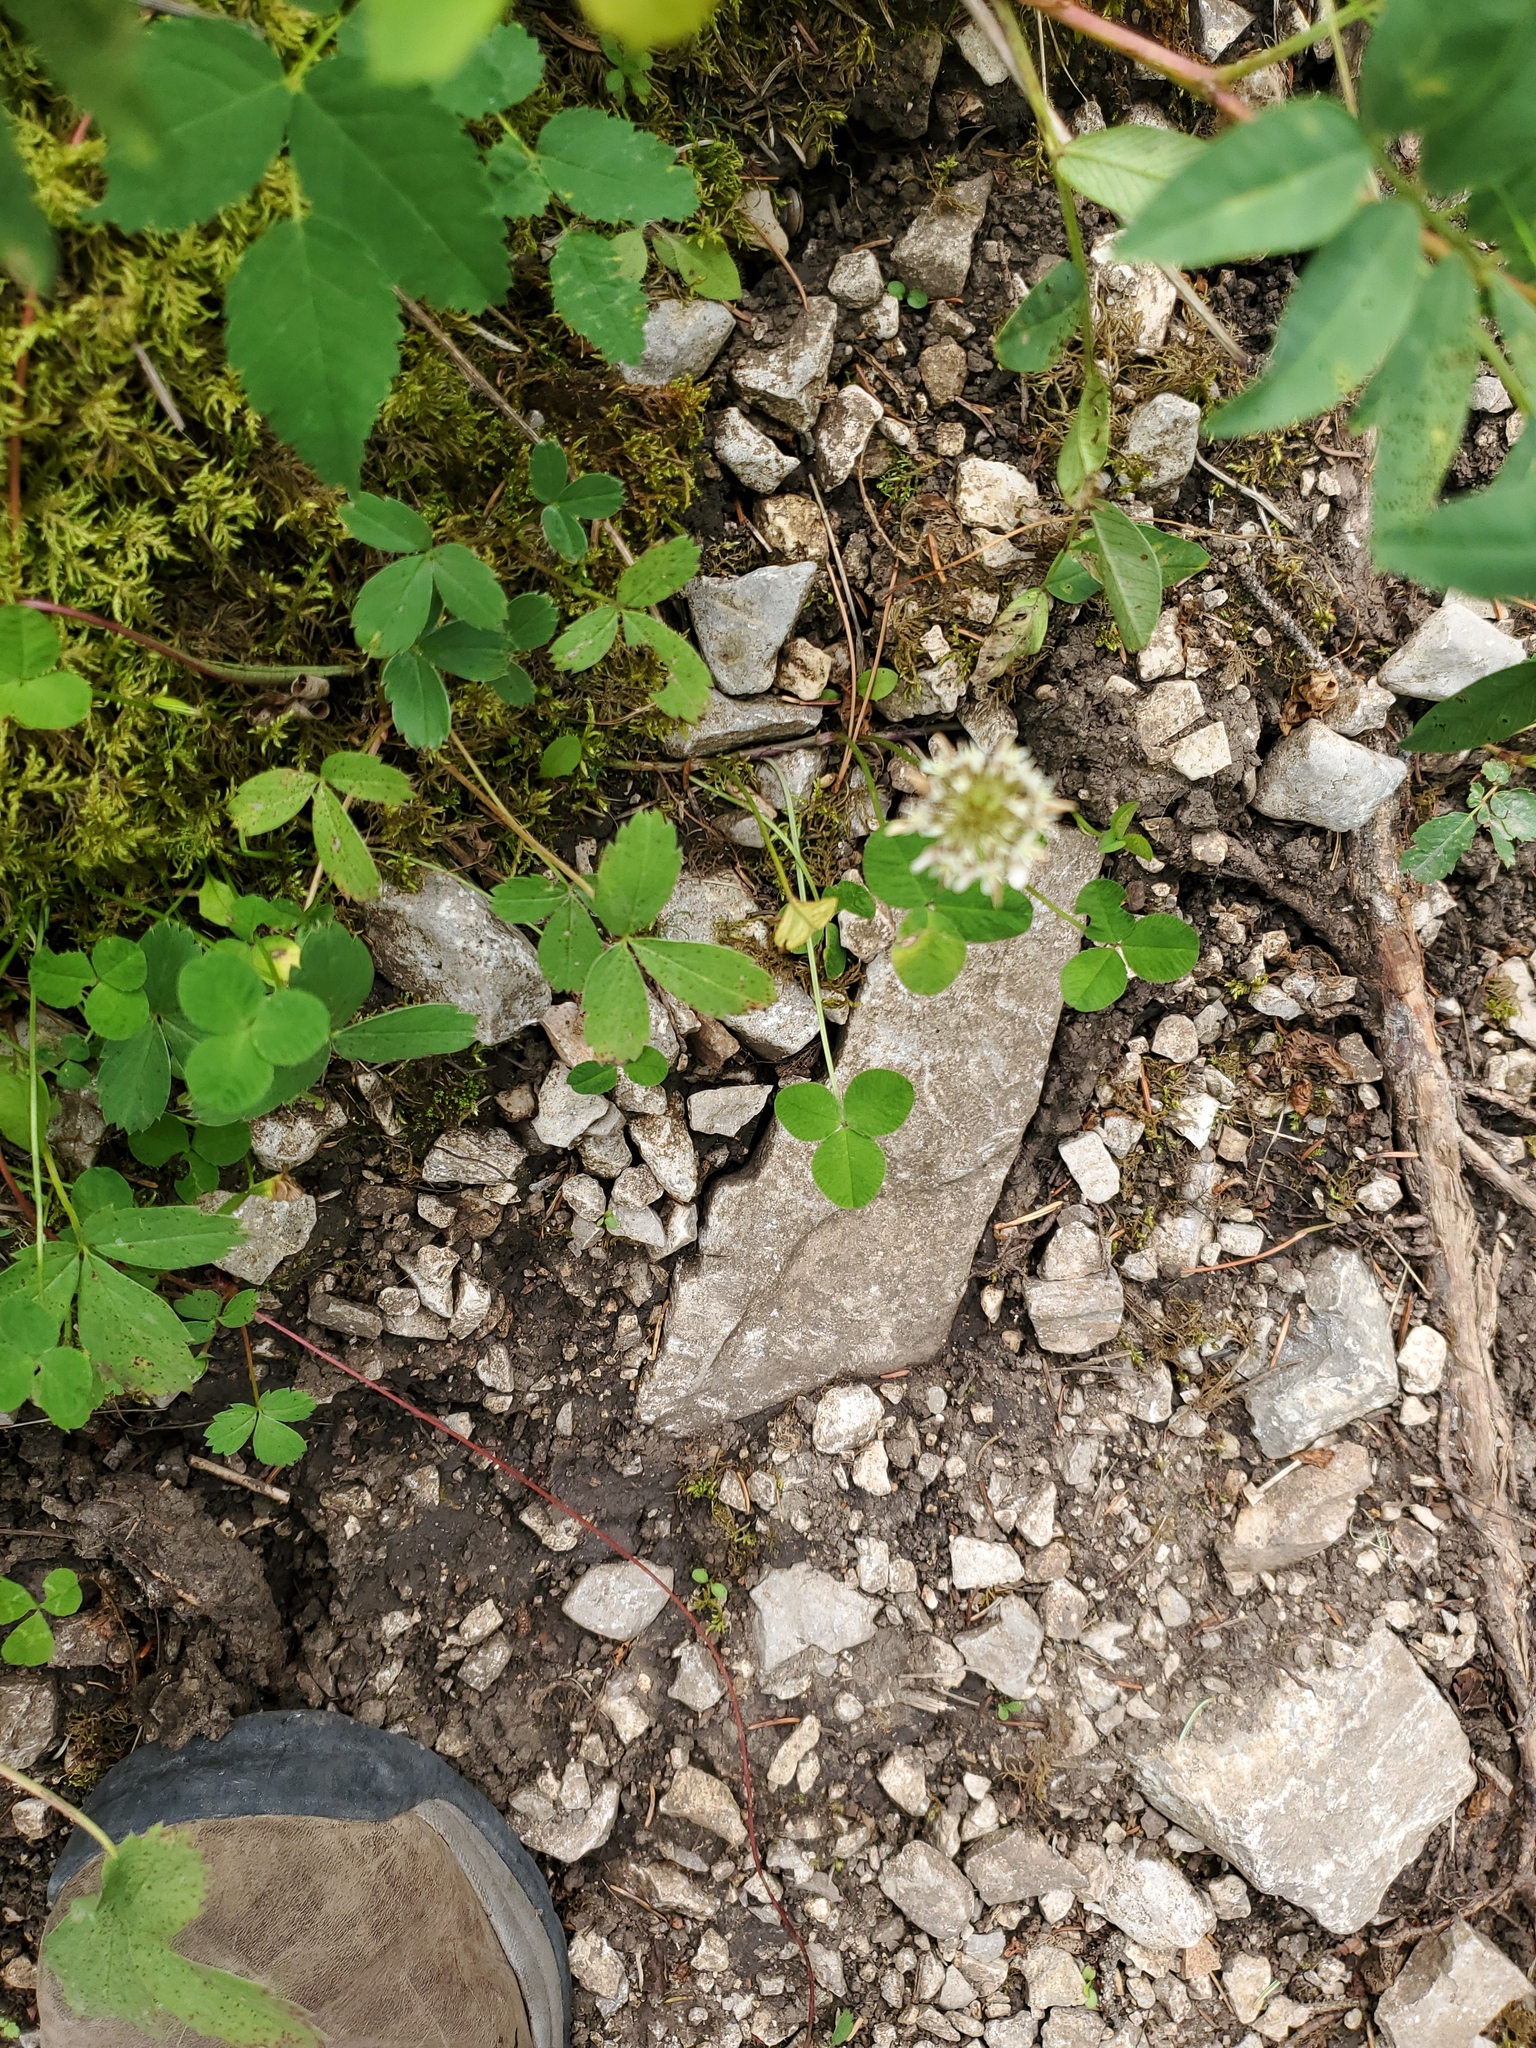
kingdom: Plantae
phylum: Tracheophyta
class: Magnoliopsida
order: Fabales
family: Fabaceae
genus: Trifolium
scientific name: Trifolium repens
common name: White clover
